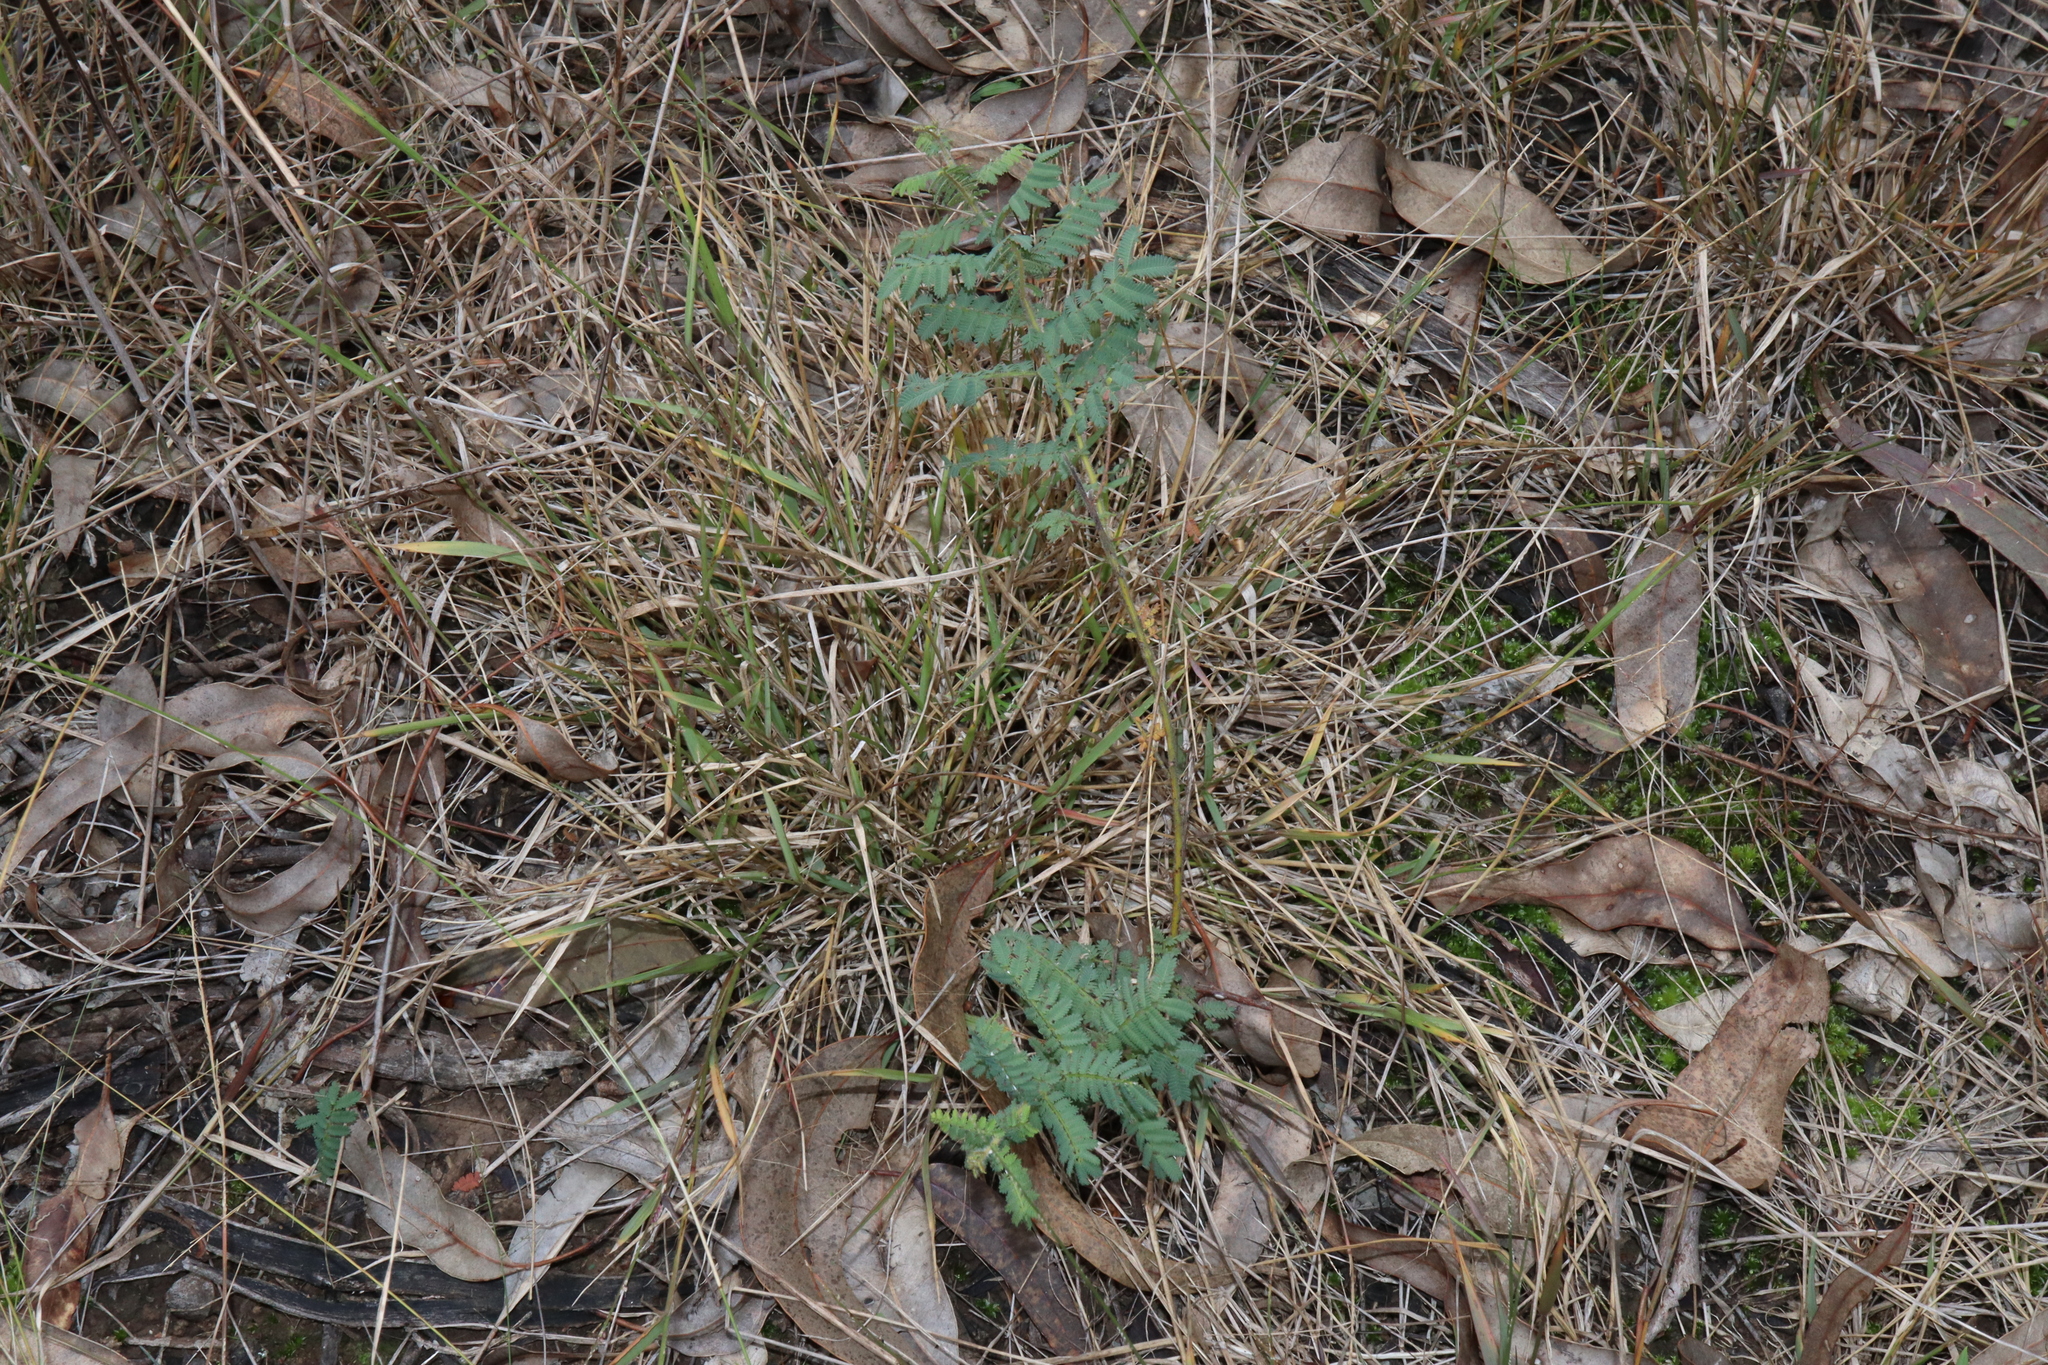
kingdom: Plantae
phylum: Tracheophyta
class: Magnoliopsida
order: Fabales
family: Fabaceae
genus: Acacia
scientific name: Acacia pubescens
